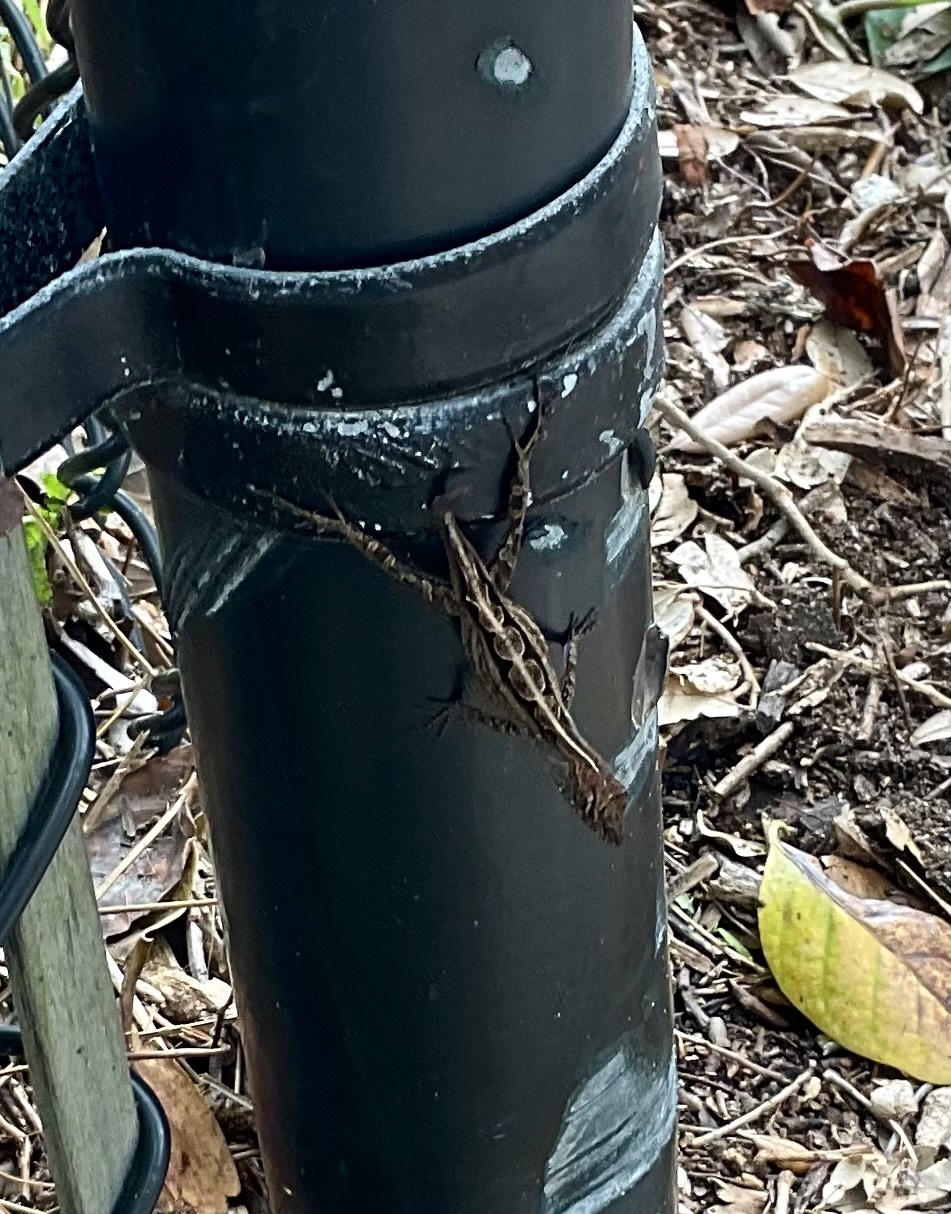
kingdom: Animalia
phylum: Chordata
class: Squamata
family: Dactyloidae
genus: Anolis
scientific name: Anolis sagrei
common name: Brown anole
